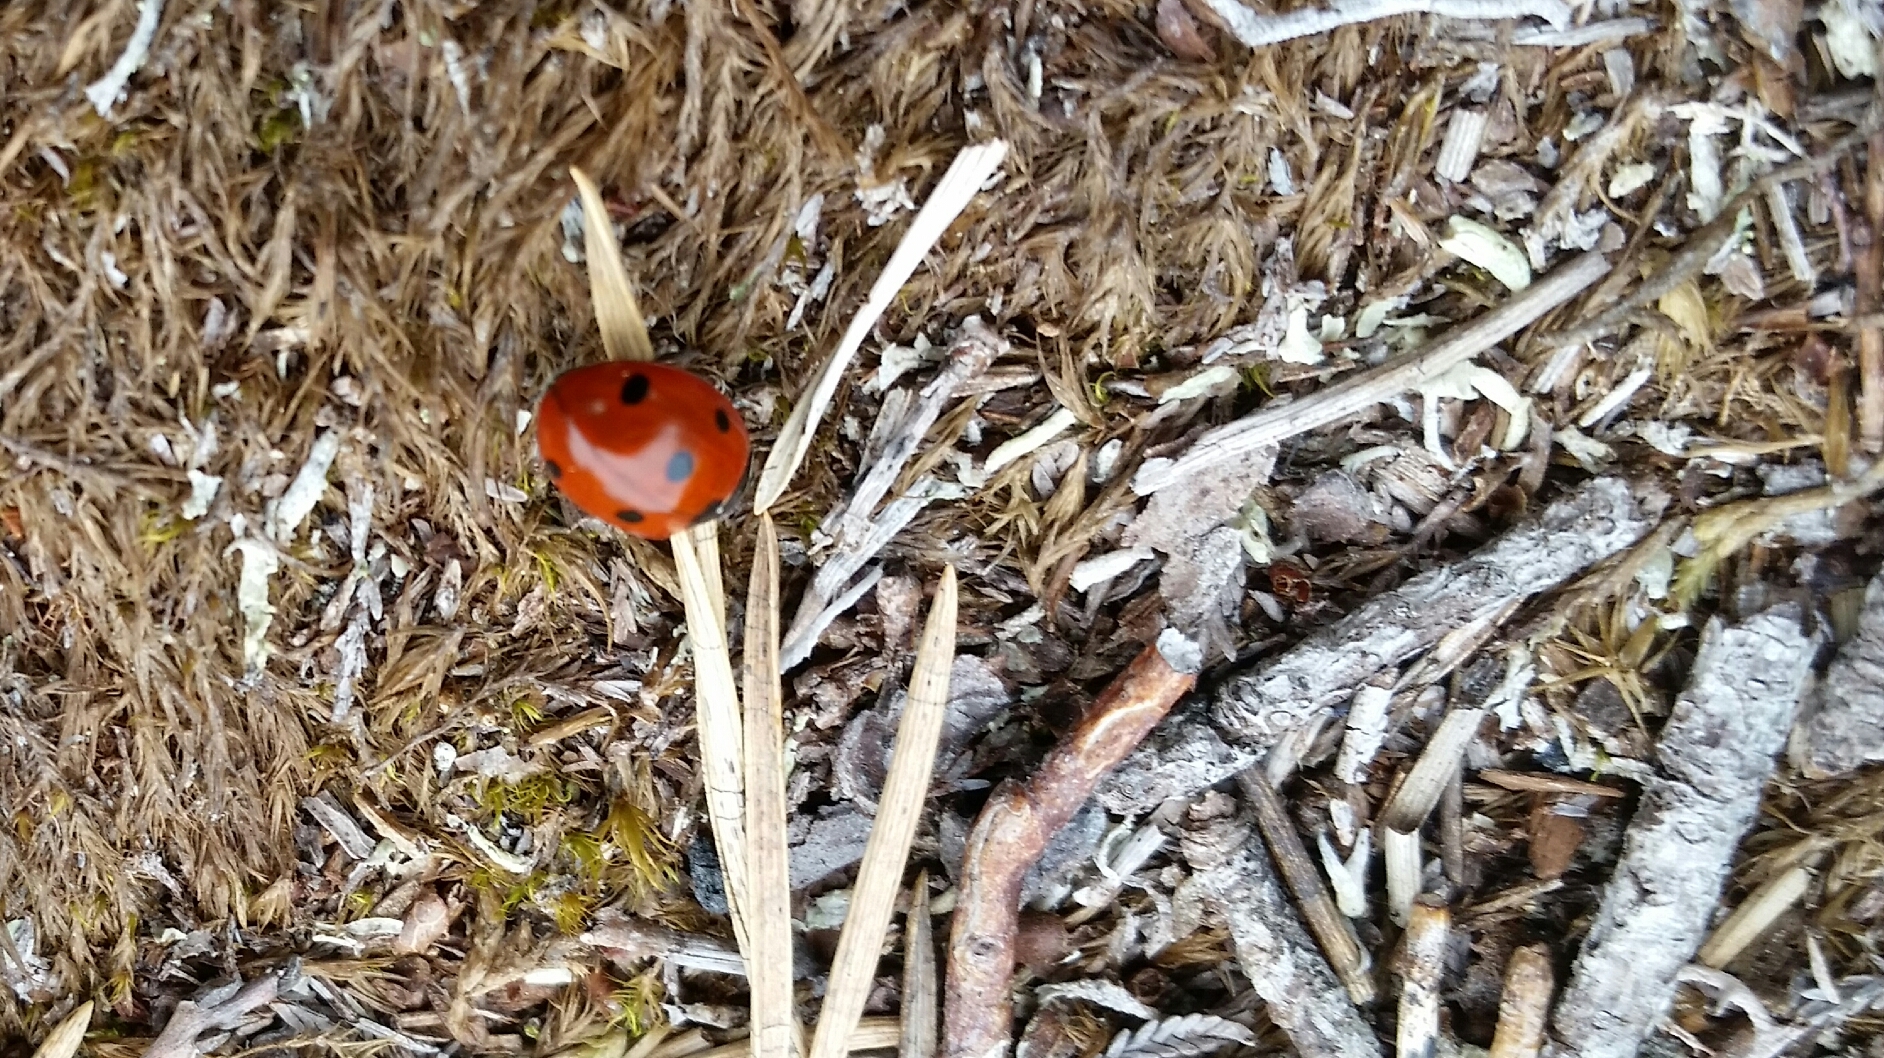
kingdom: Animalia
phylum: Arthropoda
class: Insecta
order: Coleoptera
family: Coccinellidae
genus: Coccinella
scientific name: Coccinella septempunctata
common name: Sevenspotted lady beetle
